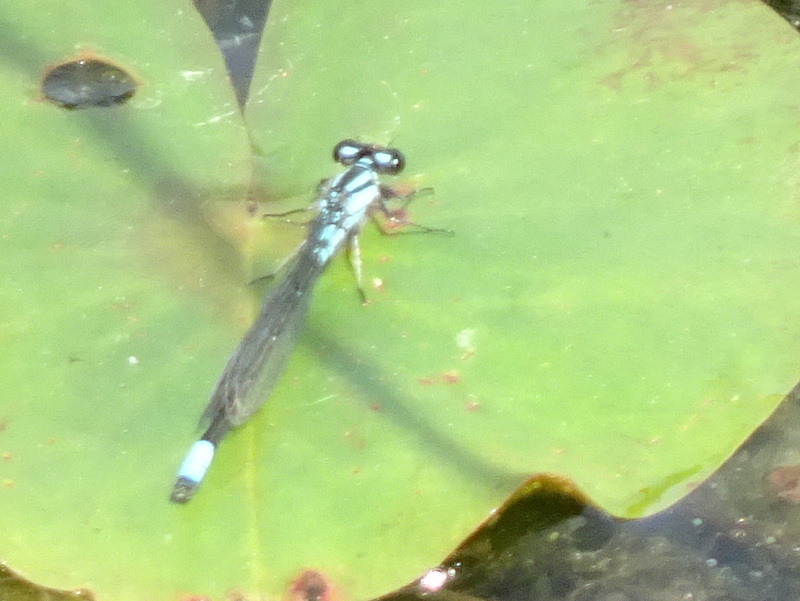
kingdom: Animalia
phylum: Arthropoda
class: Insecta
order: Odonata
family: Coenagrionidae
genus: Enallagma
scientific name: Enallagma geminatum
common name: Skimming bluet
